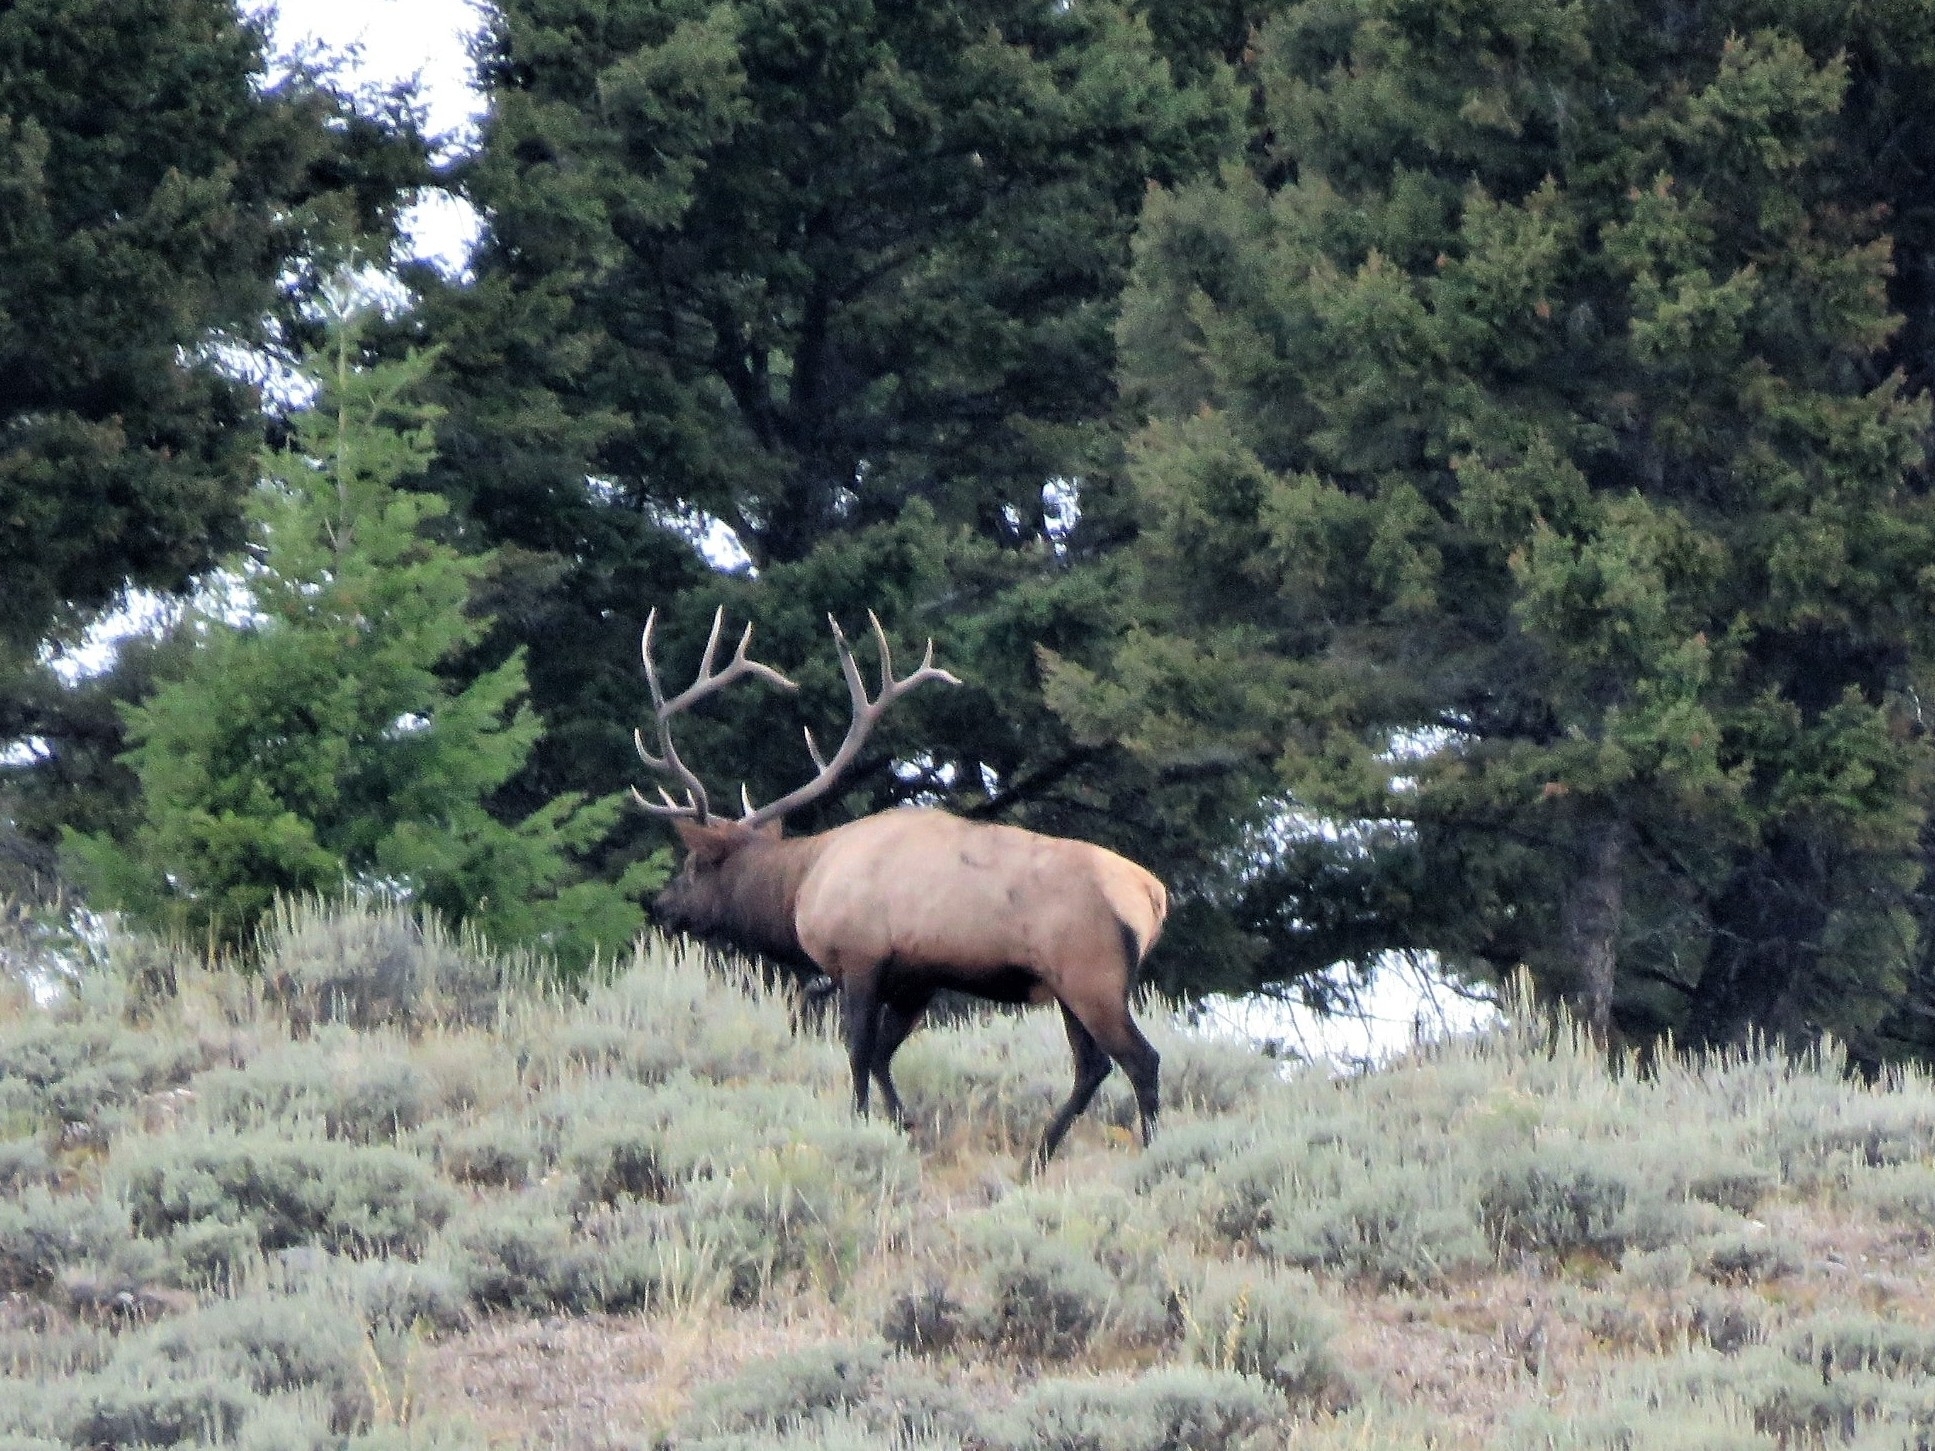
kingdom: Animalia
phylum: Chordata
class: Mammalia
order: Artiodactyla
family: Cervidae
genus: Cervus
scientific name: Cervus elaphus
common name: Red deer
